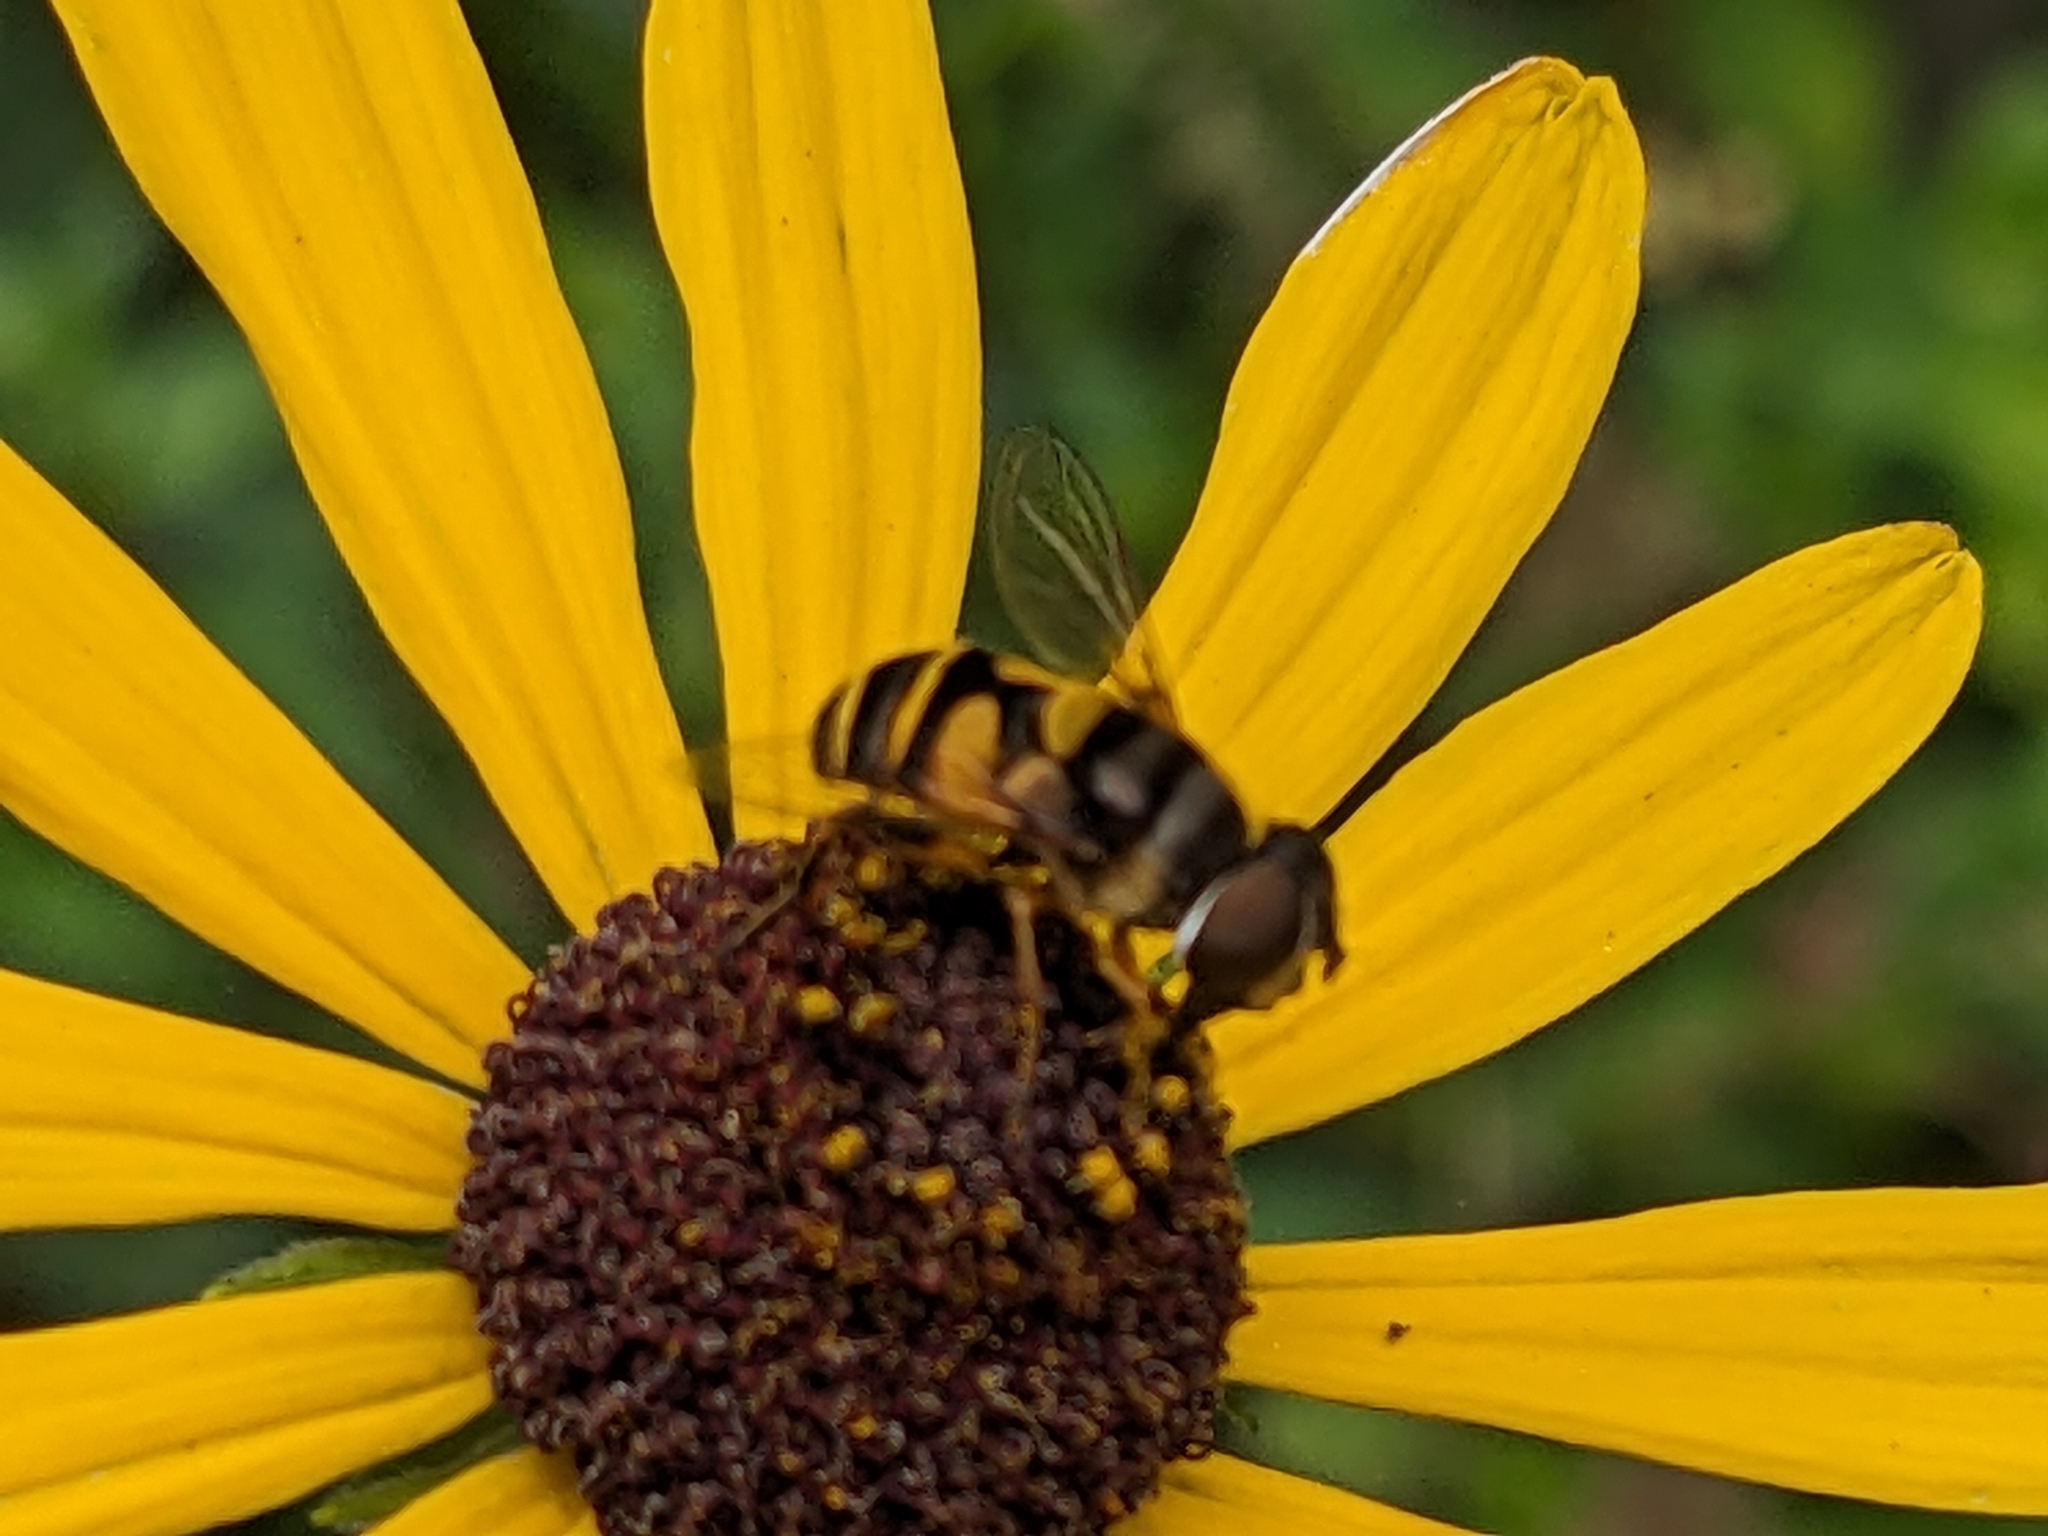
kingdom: Animalia
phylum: Arthropoda
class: Insecta
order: Diptera
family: Syrphidae
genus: Eristalis
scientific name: Eristalis transversa
